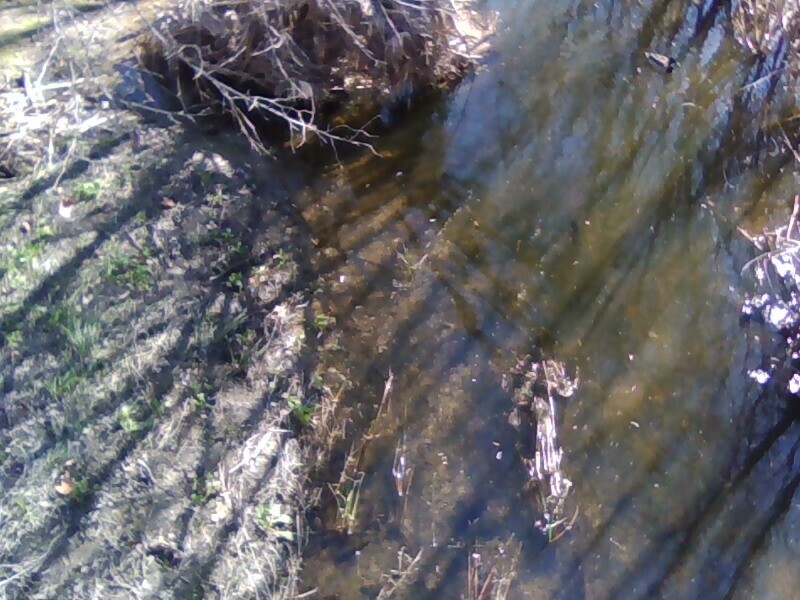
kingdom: Animalia
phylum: Chordata
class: Aves
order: Anseriformes
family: Anatidae
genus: Anas
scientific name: Anas platyrhynchos
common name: Mallard
